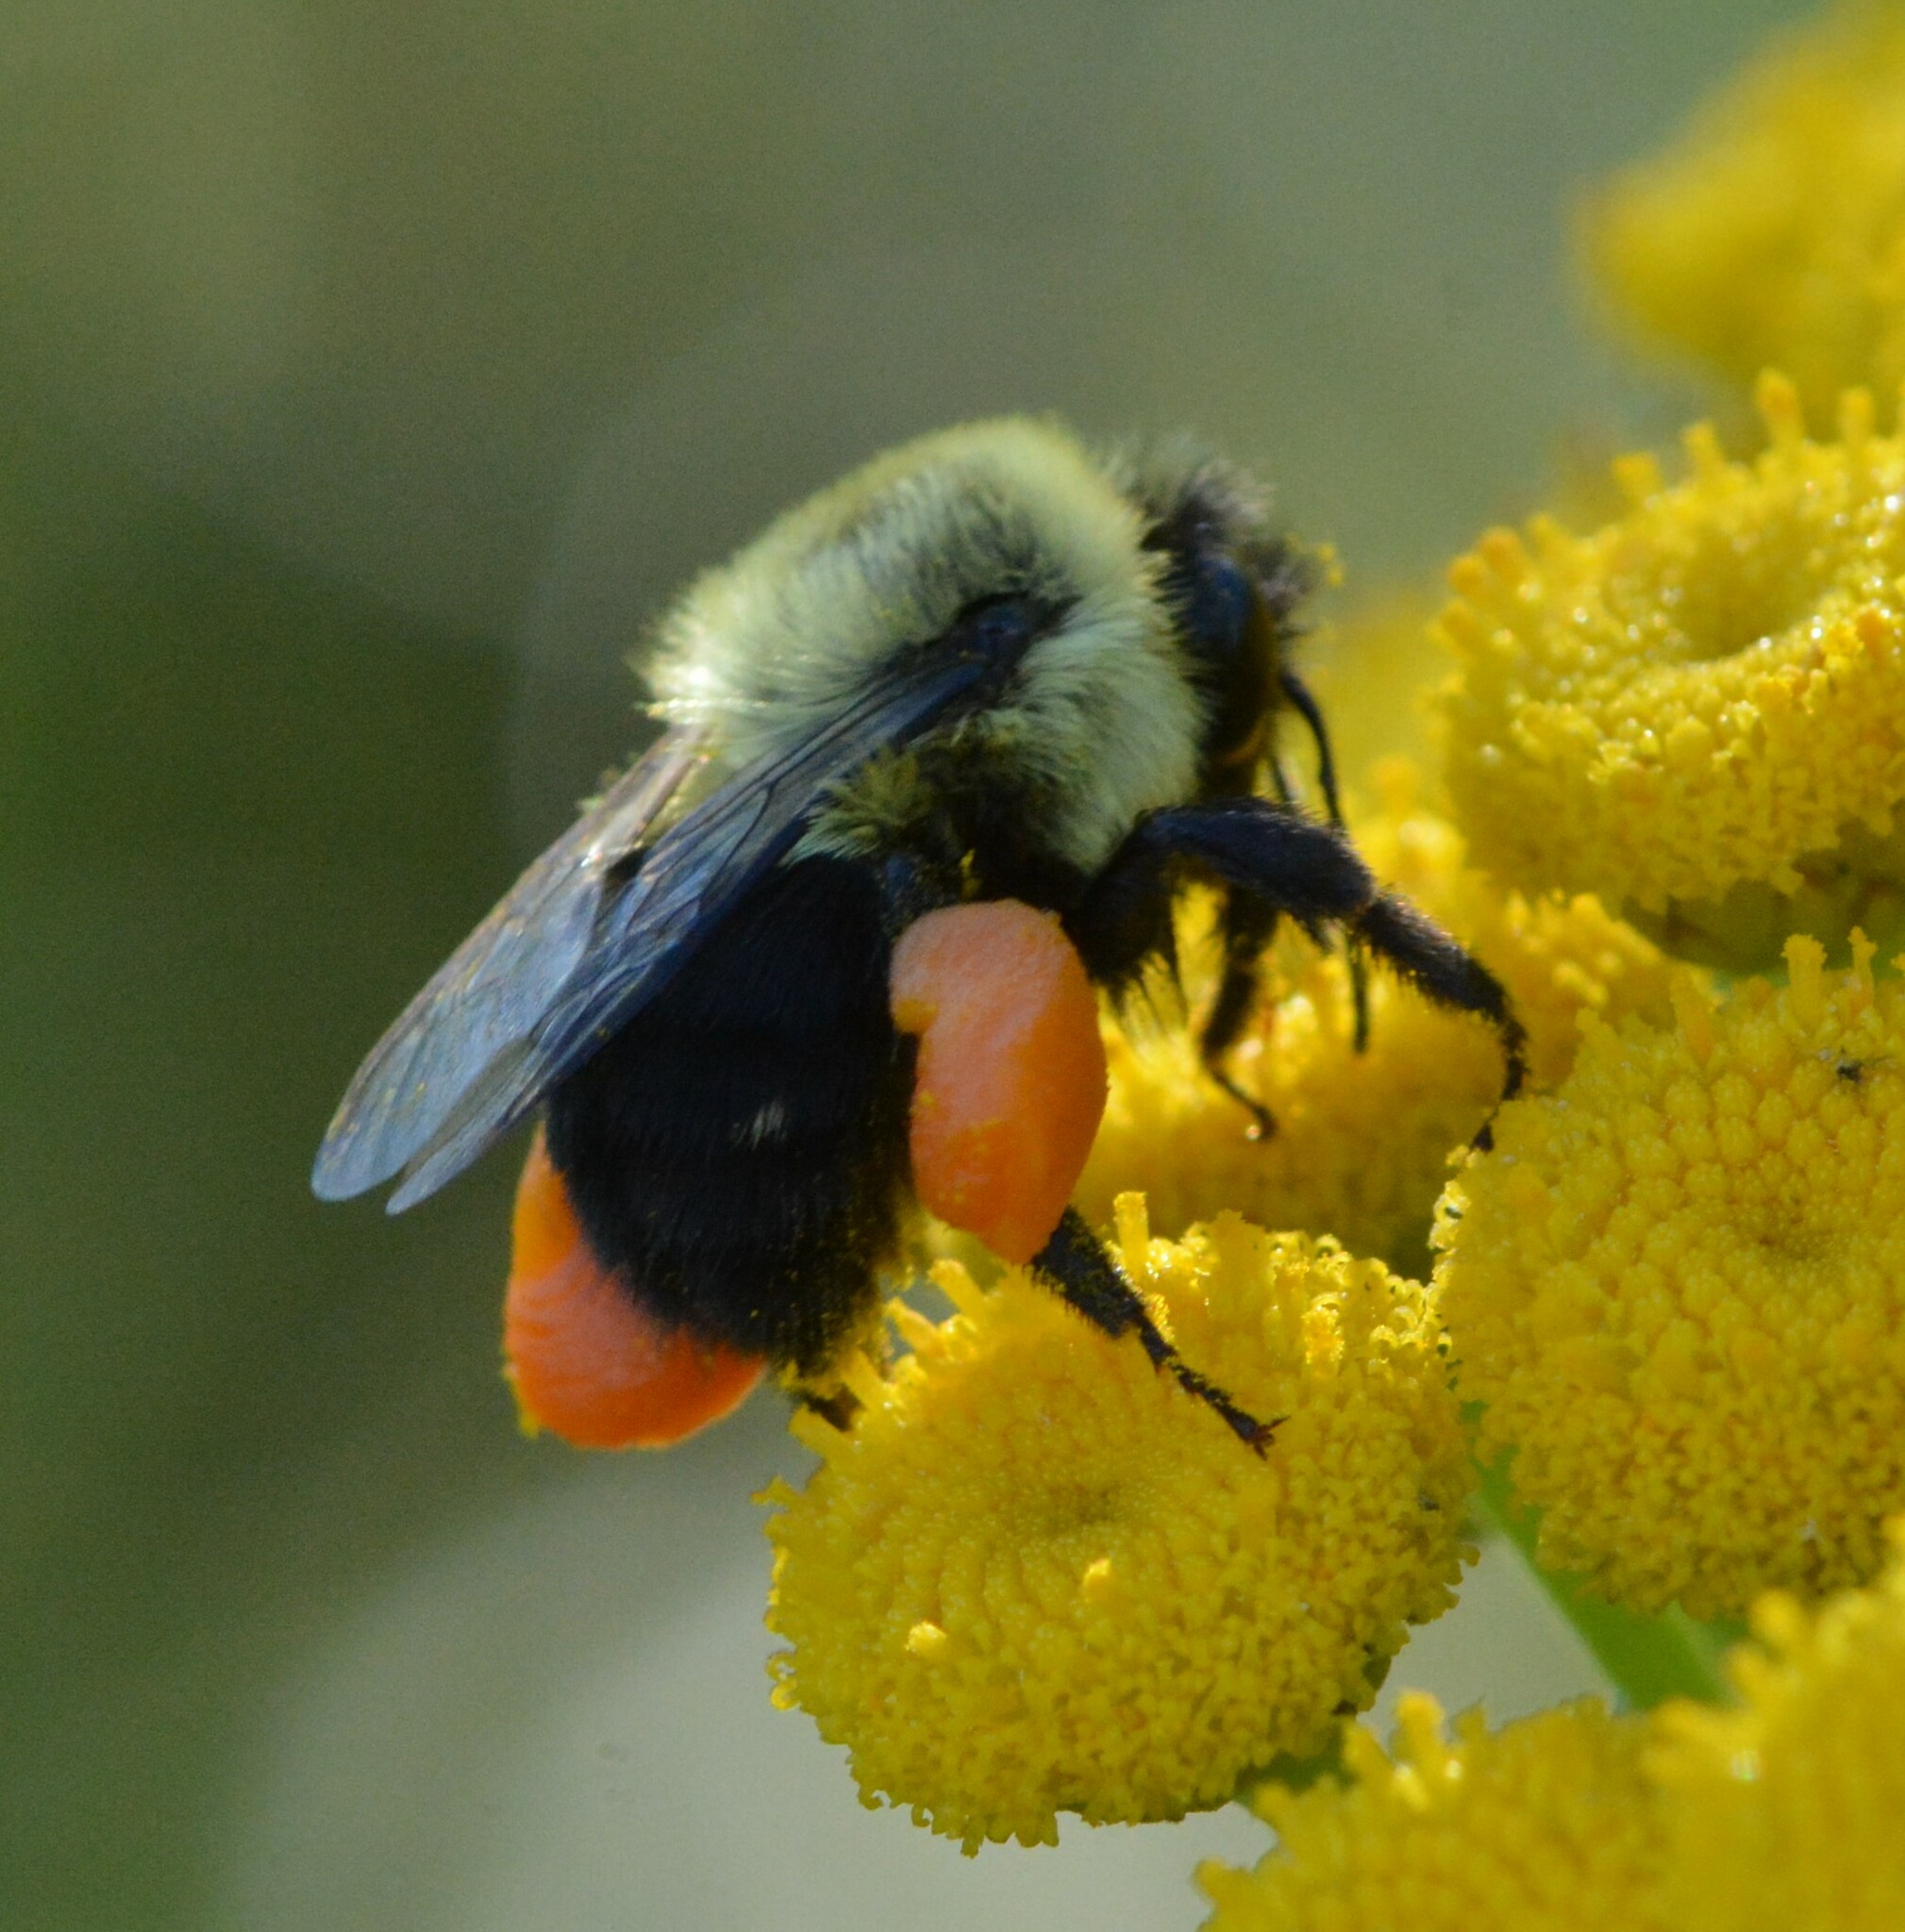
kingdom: Animalia
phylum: Arthropoda
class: Insecta
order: Hymenoptera
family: Apidae
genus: Bombus
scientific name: Bombus impatiens
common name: Common eastern bumble bee
